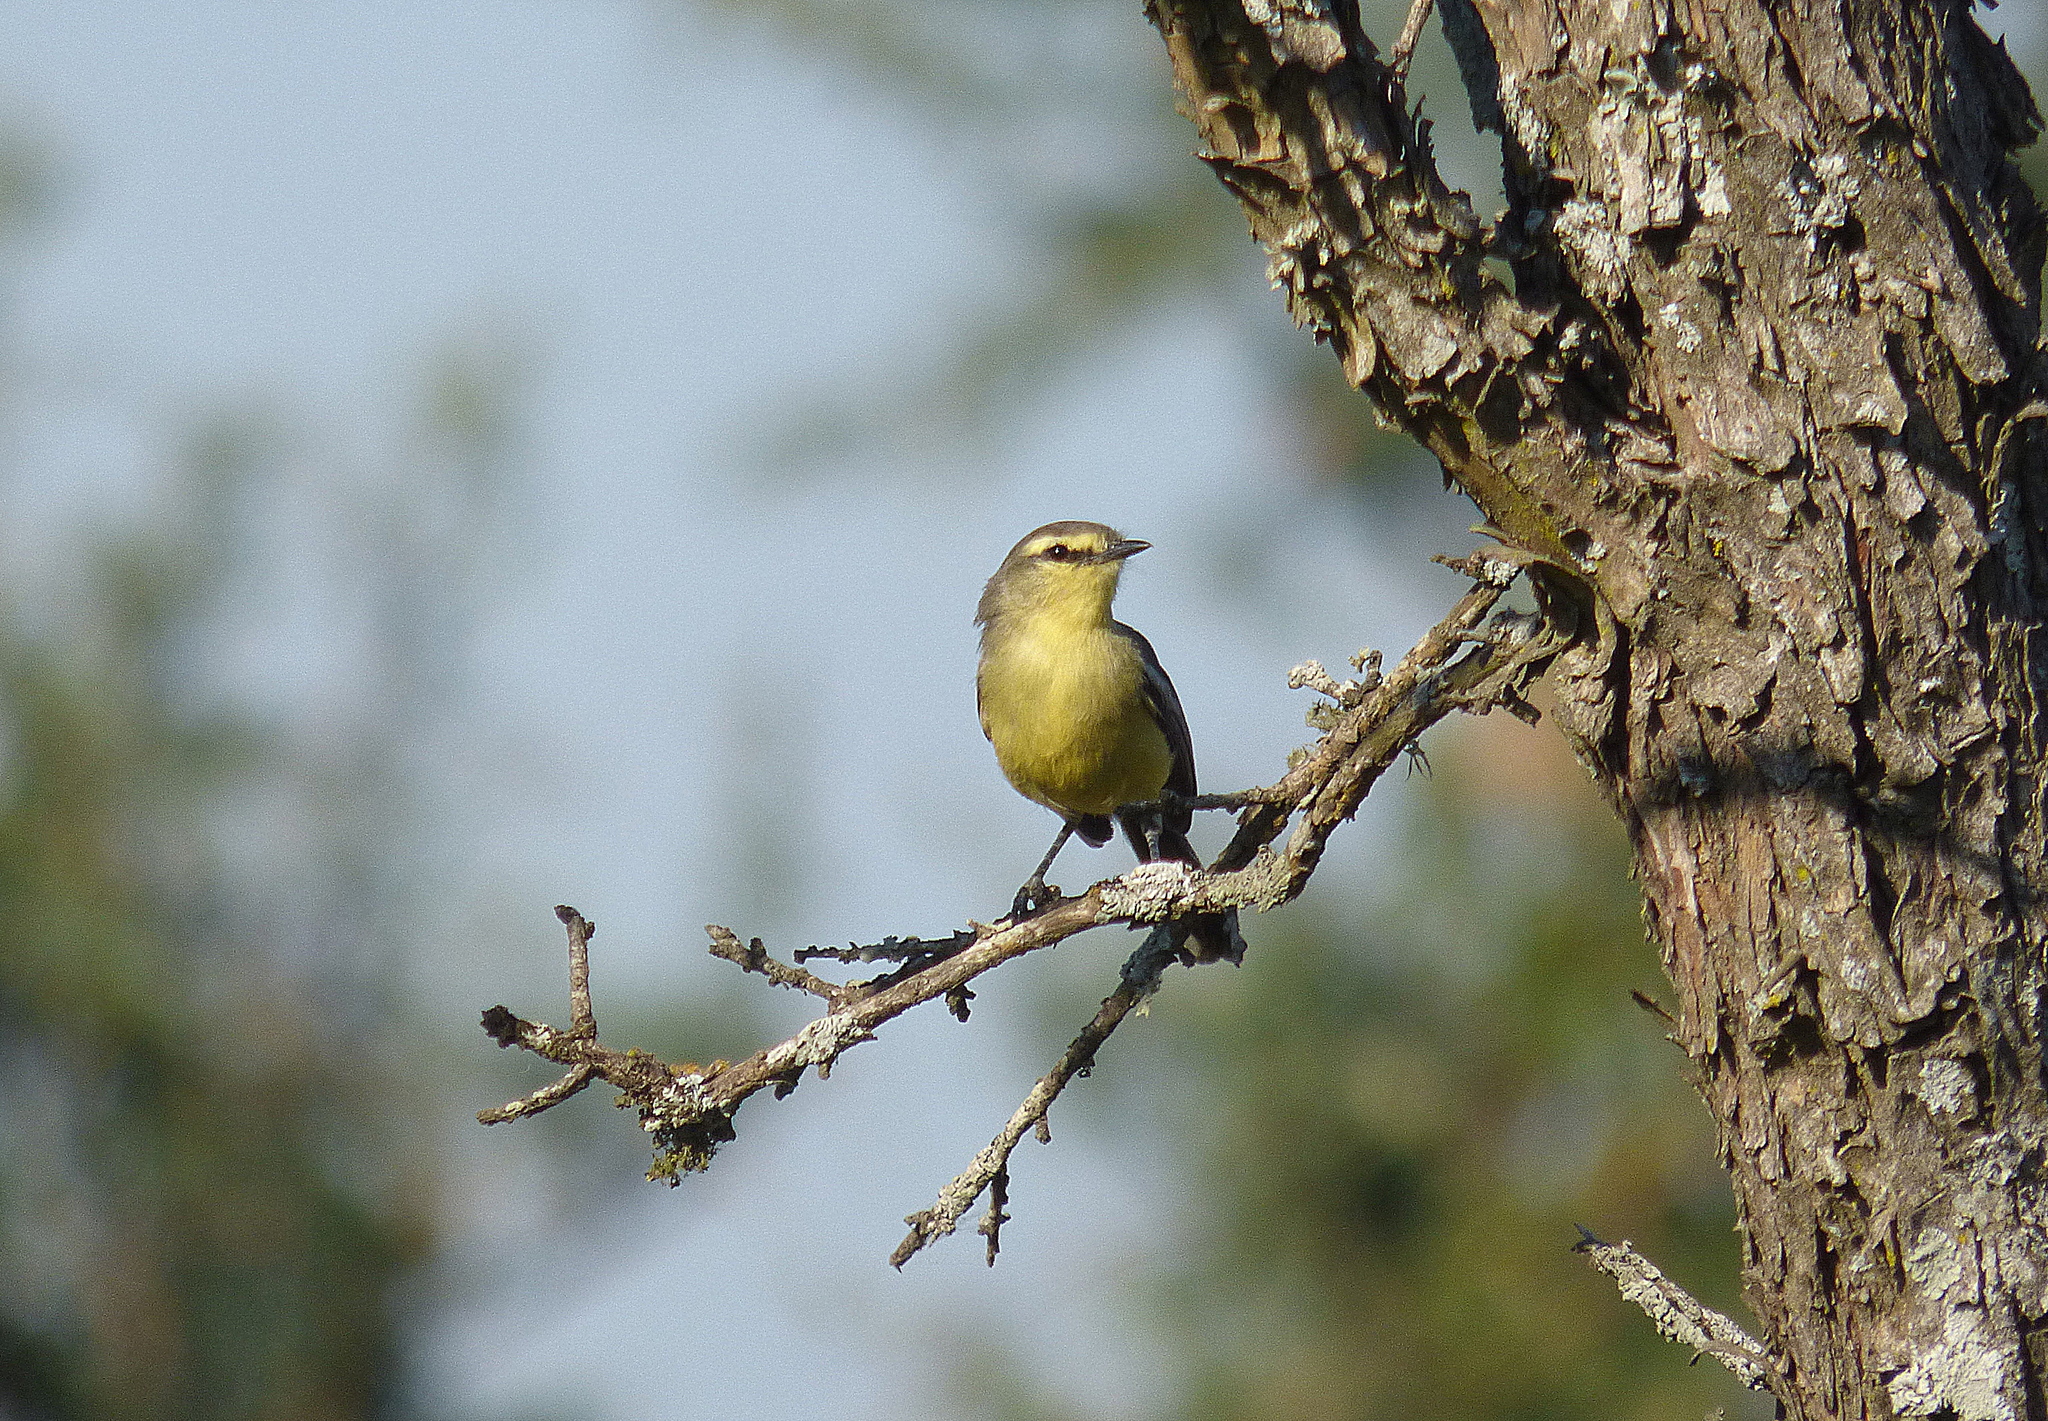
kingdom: Animalia
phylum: Chordata
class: Aves
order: Passeriformes
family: Tyrannidae
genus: Stigmatura
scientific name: Stigmatura budytoides
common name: Greater wagtail-tyrant
